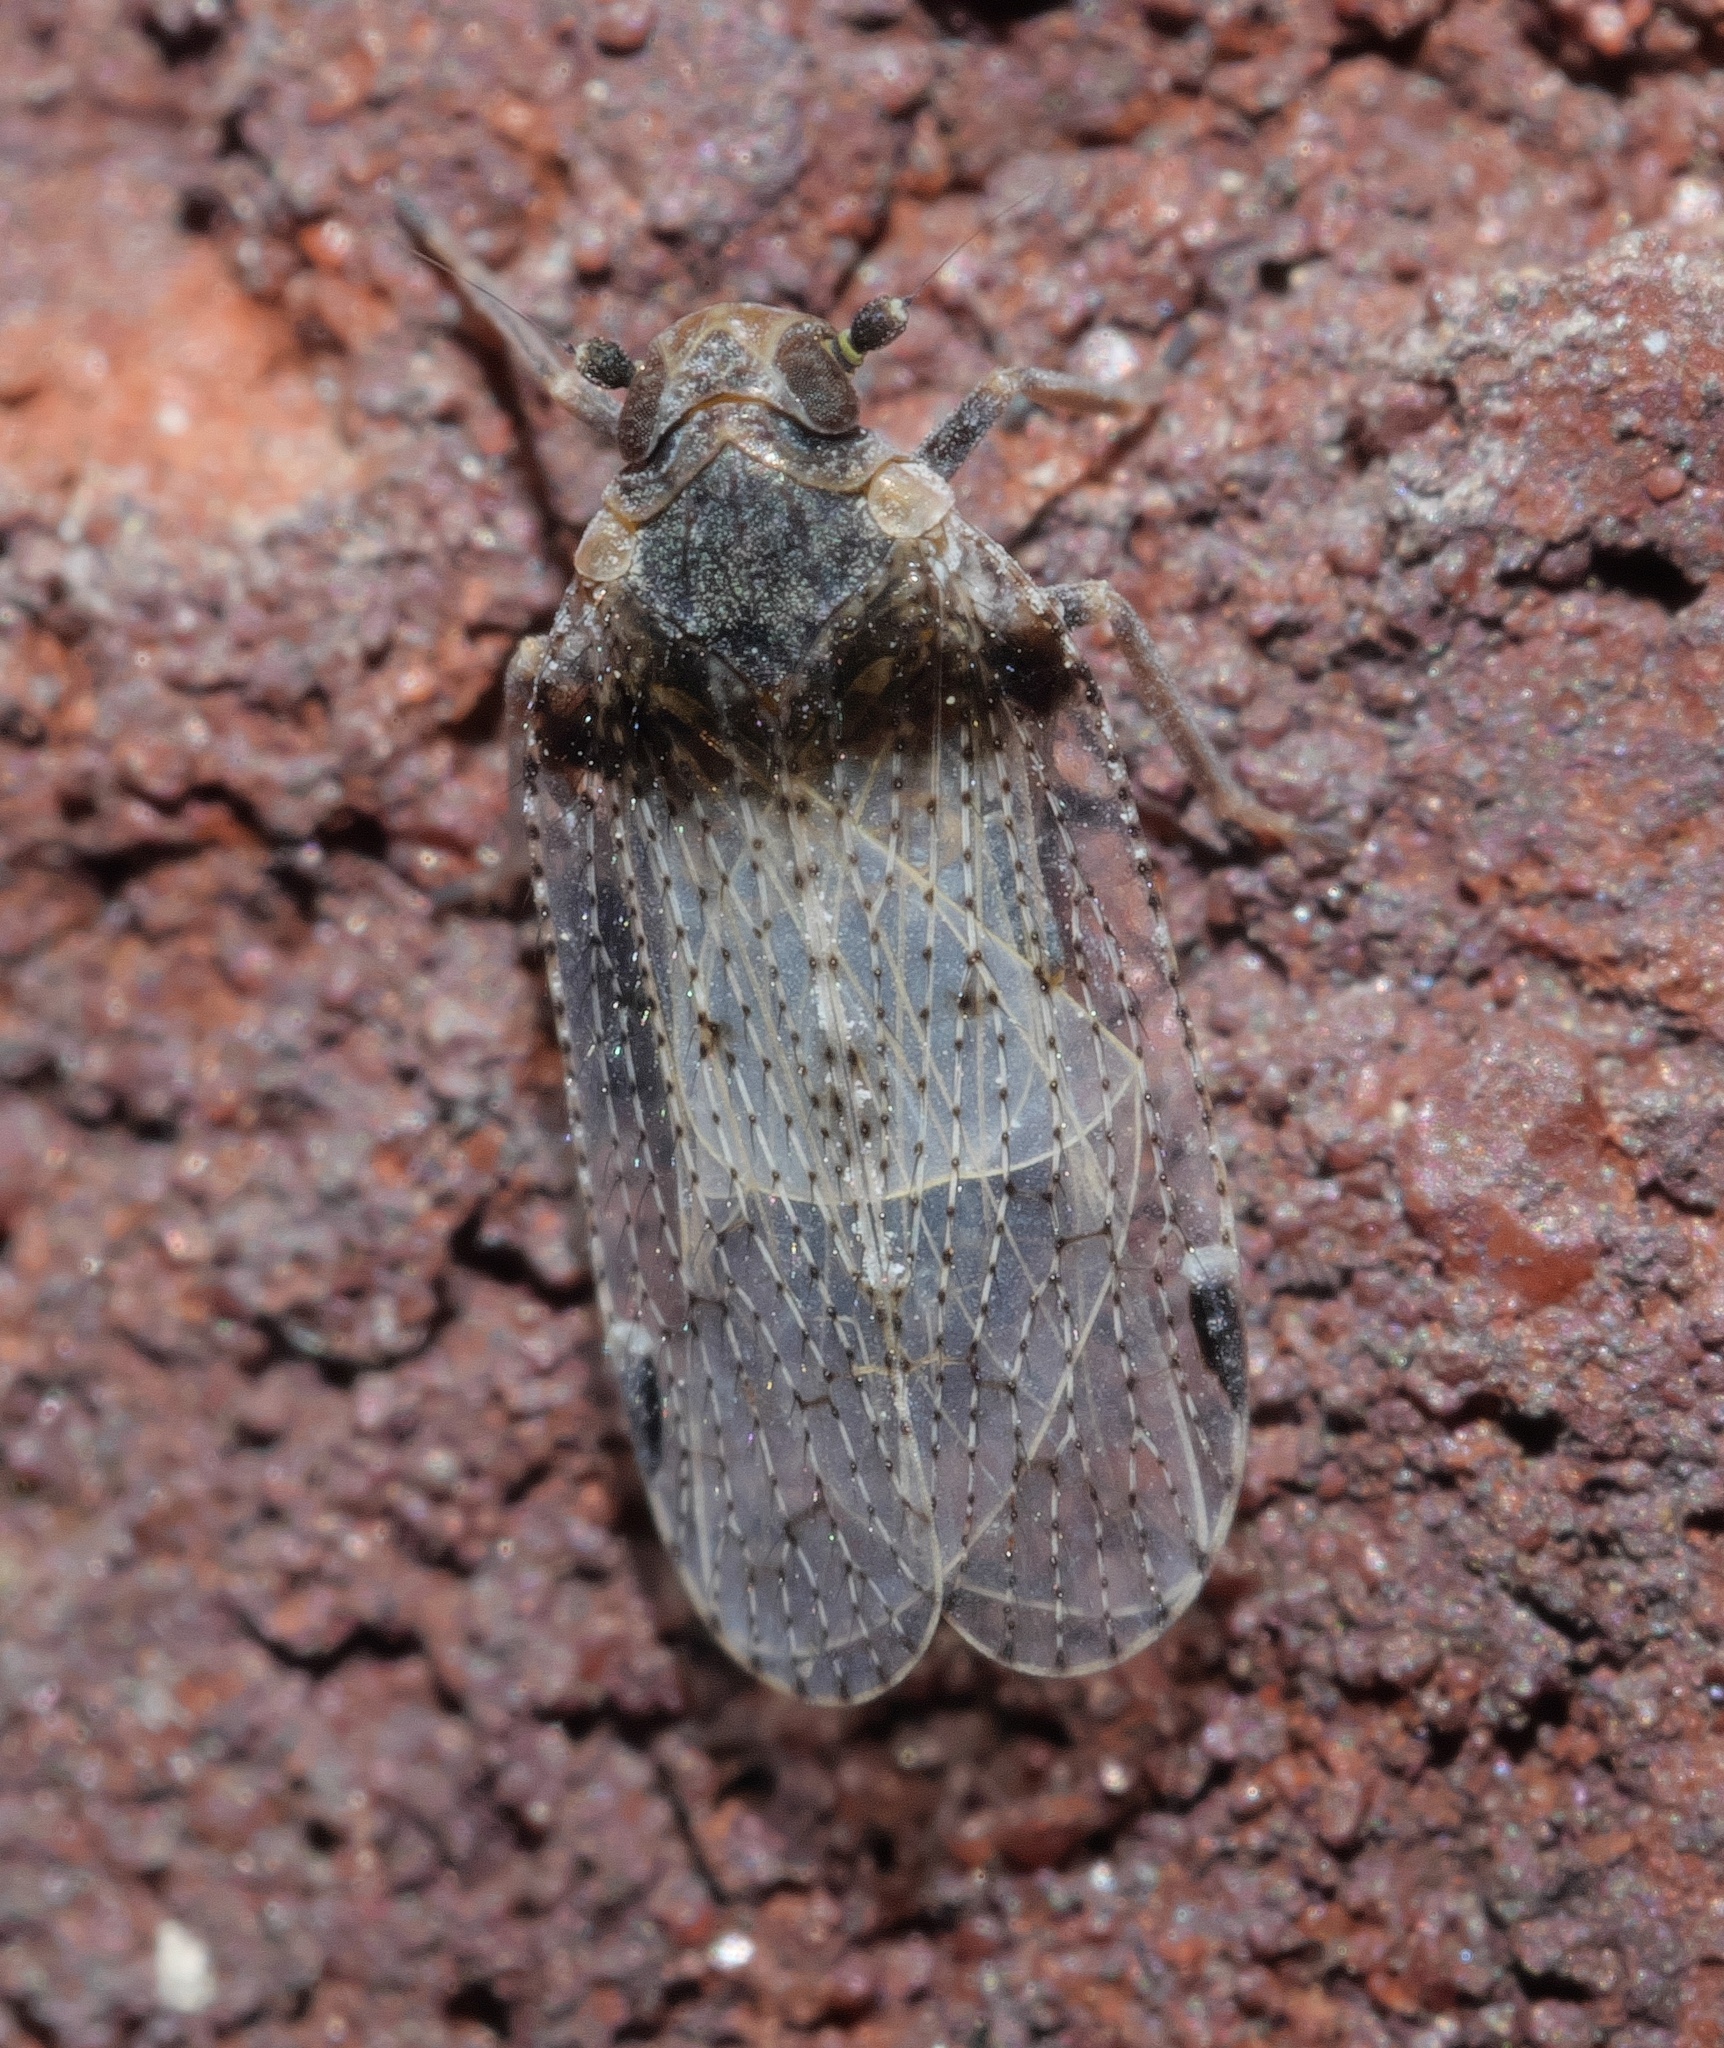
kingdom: Animalia
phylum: Arthropoda
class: Insecta
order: Hemiptera
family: Cixiidae
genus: Cixius
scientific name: Cixius stigmatus
